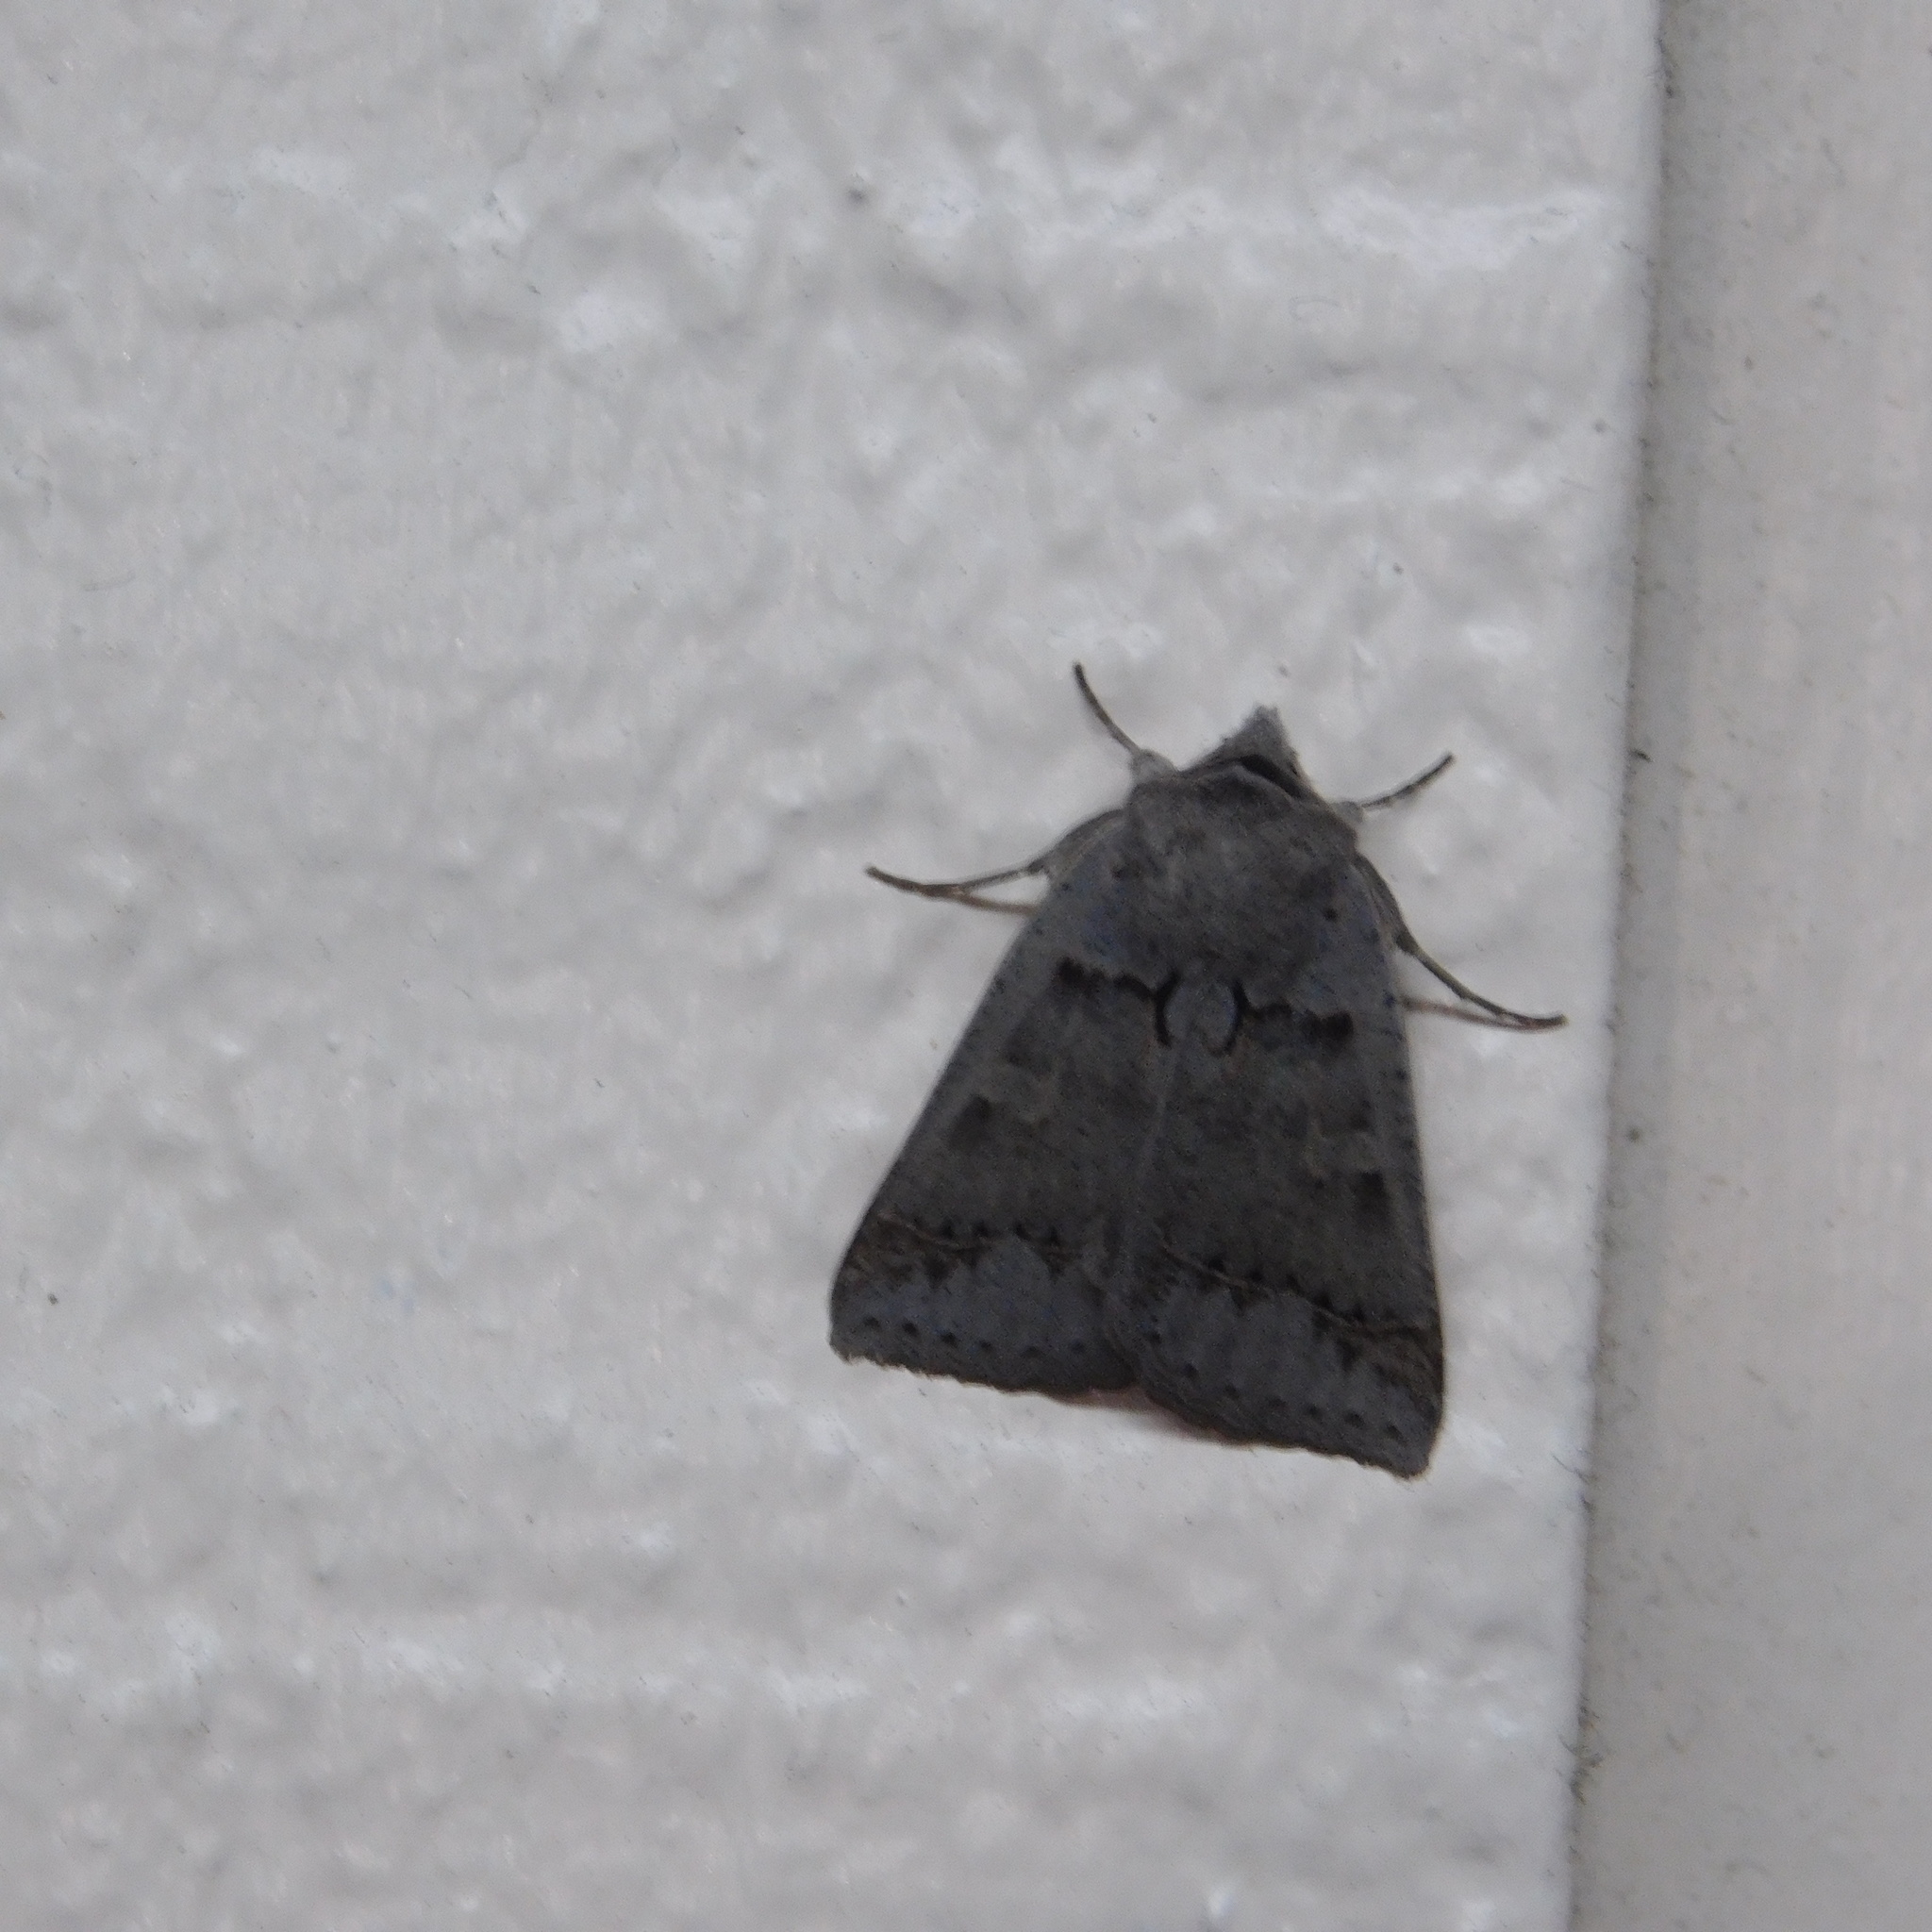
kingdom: Animalia
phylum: Arthropoda
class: Insecta
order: Lepidoptera
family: Erebidae
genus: Pantydia
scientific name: Pantydia sparsa
